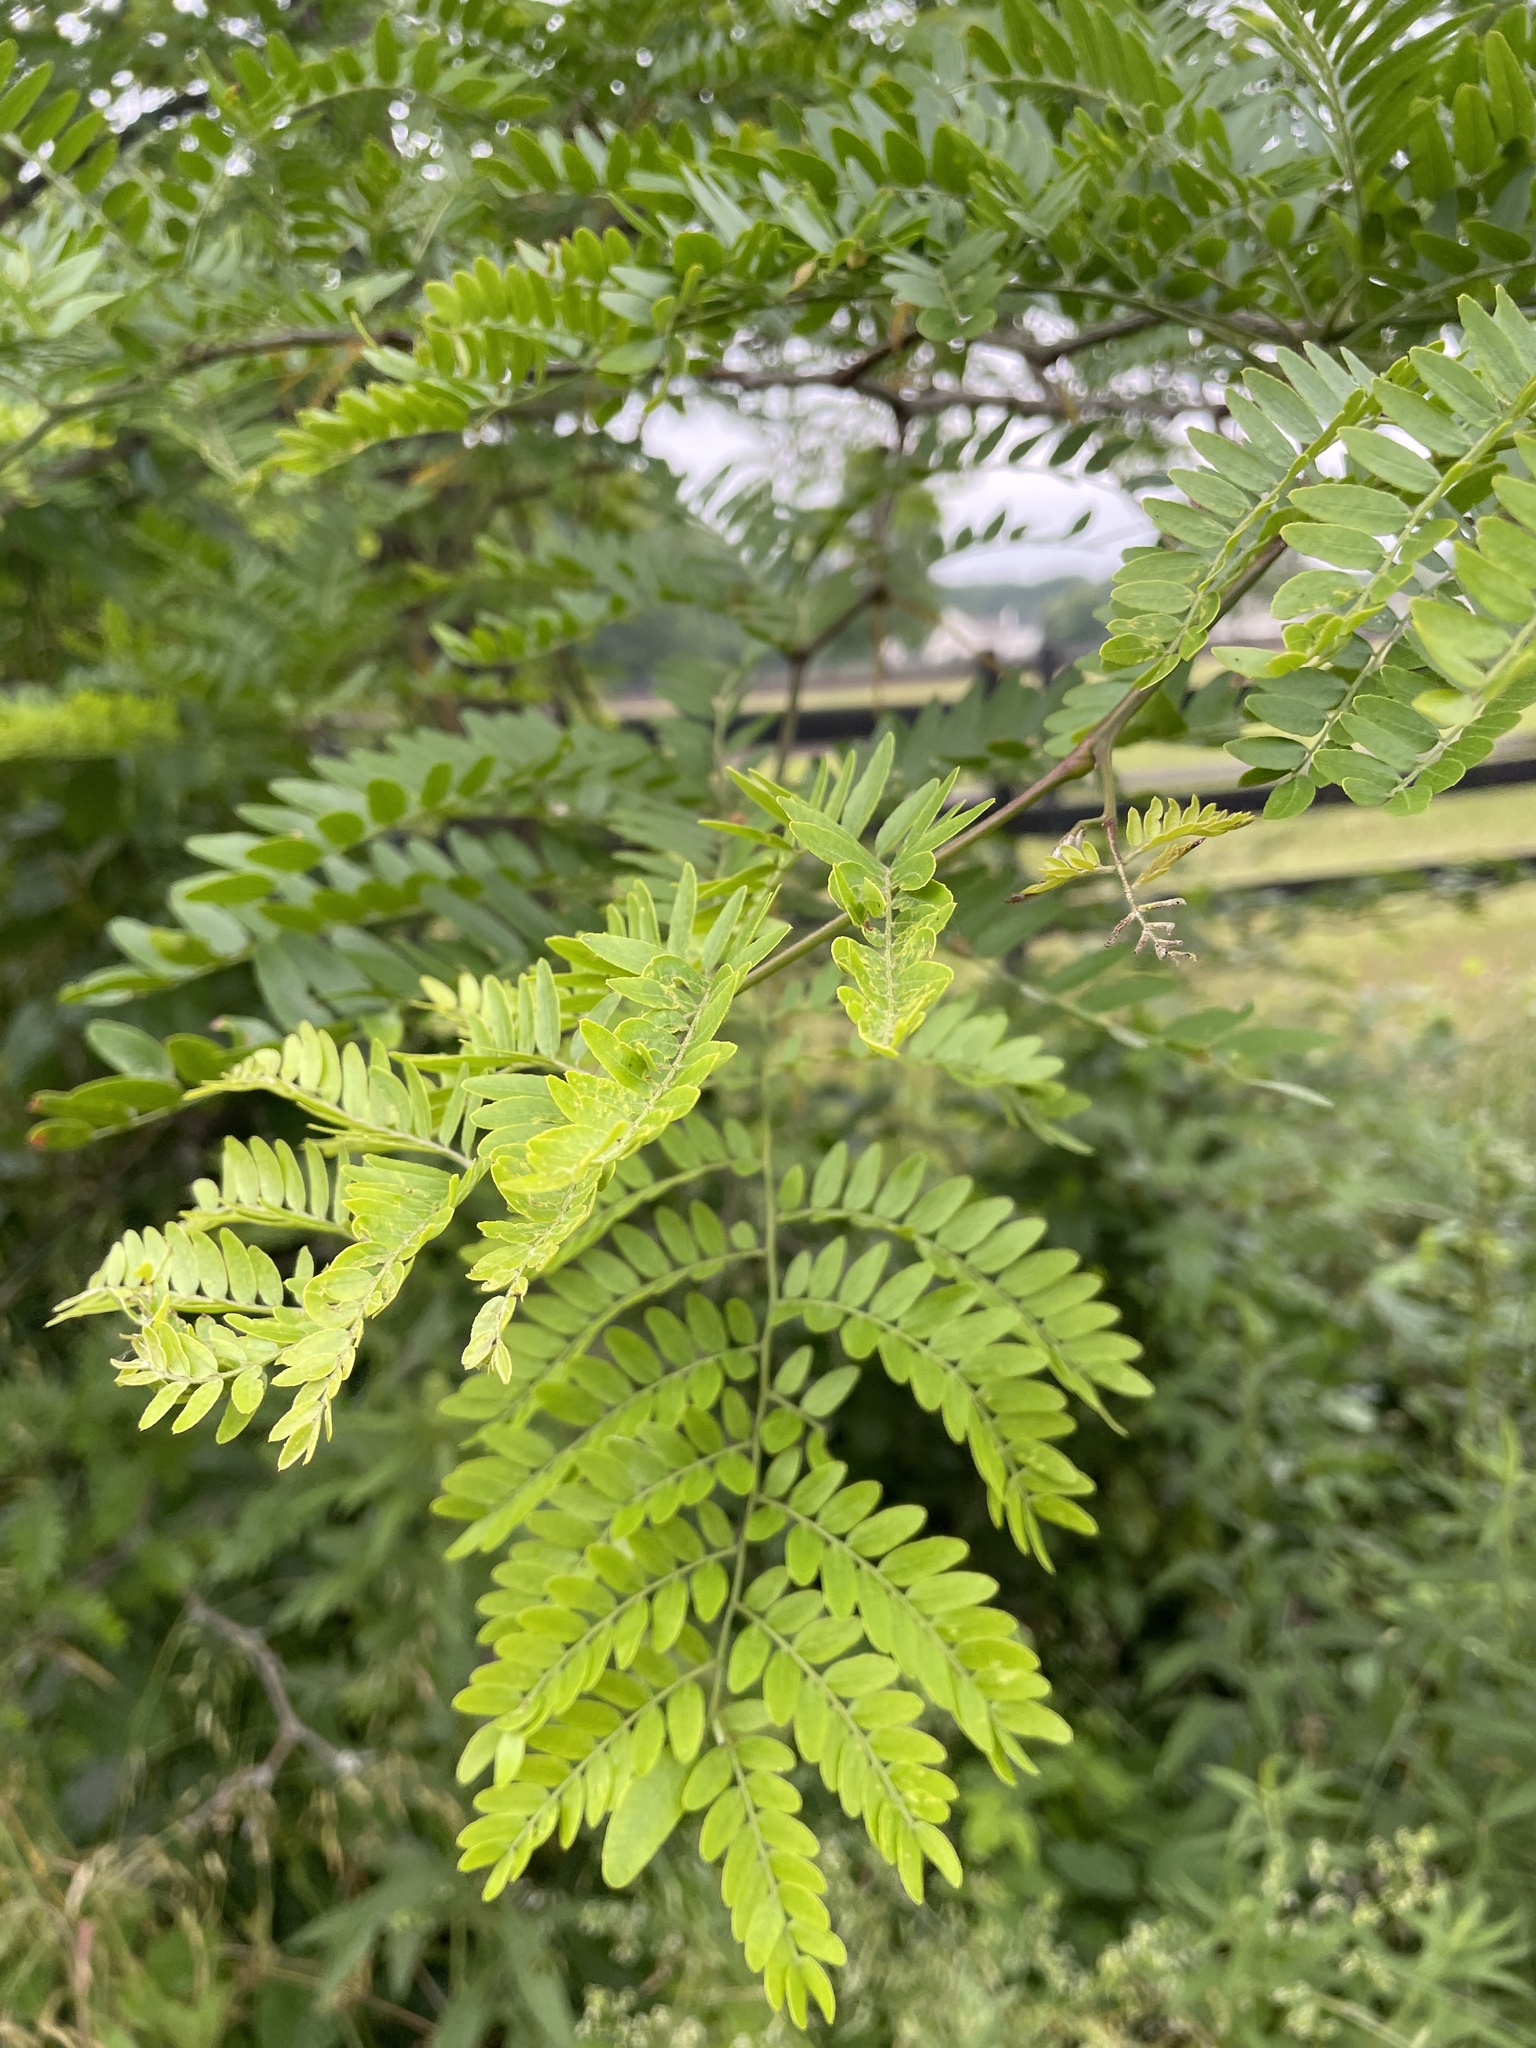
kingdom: Plantae
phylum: Tracheophyta
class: Magnoliopsida
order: Fabales
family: Fabaceae
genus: Gleditsia
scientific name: Gleditsia triacanthos
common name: Common honeylocust
